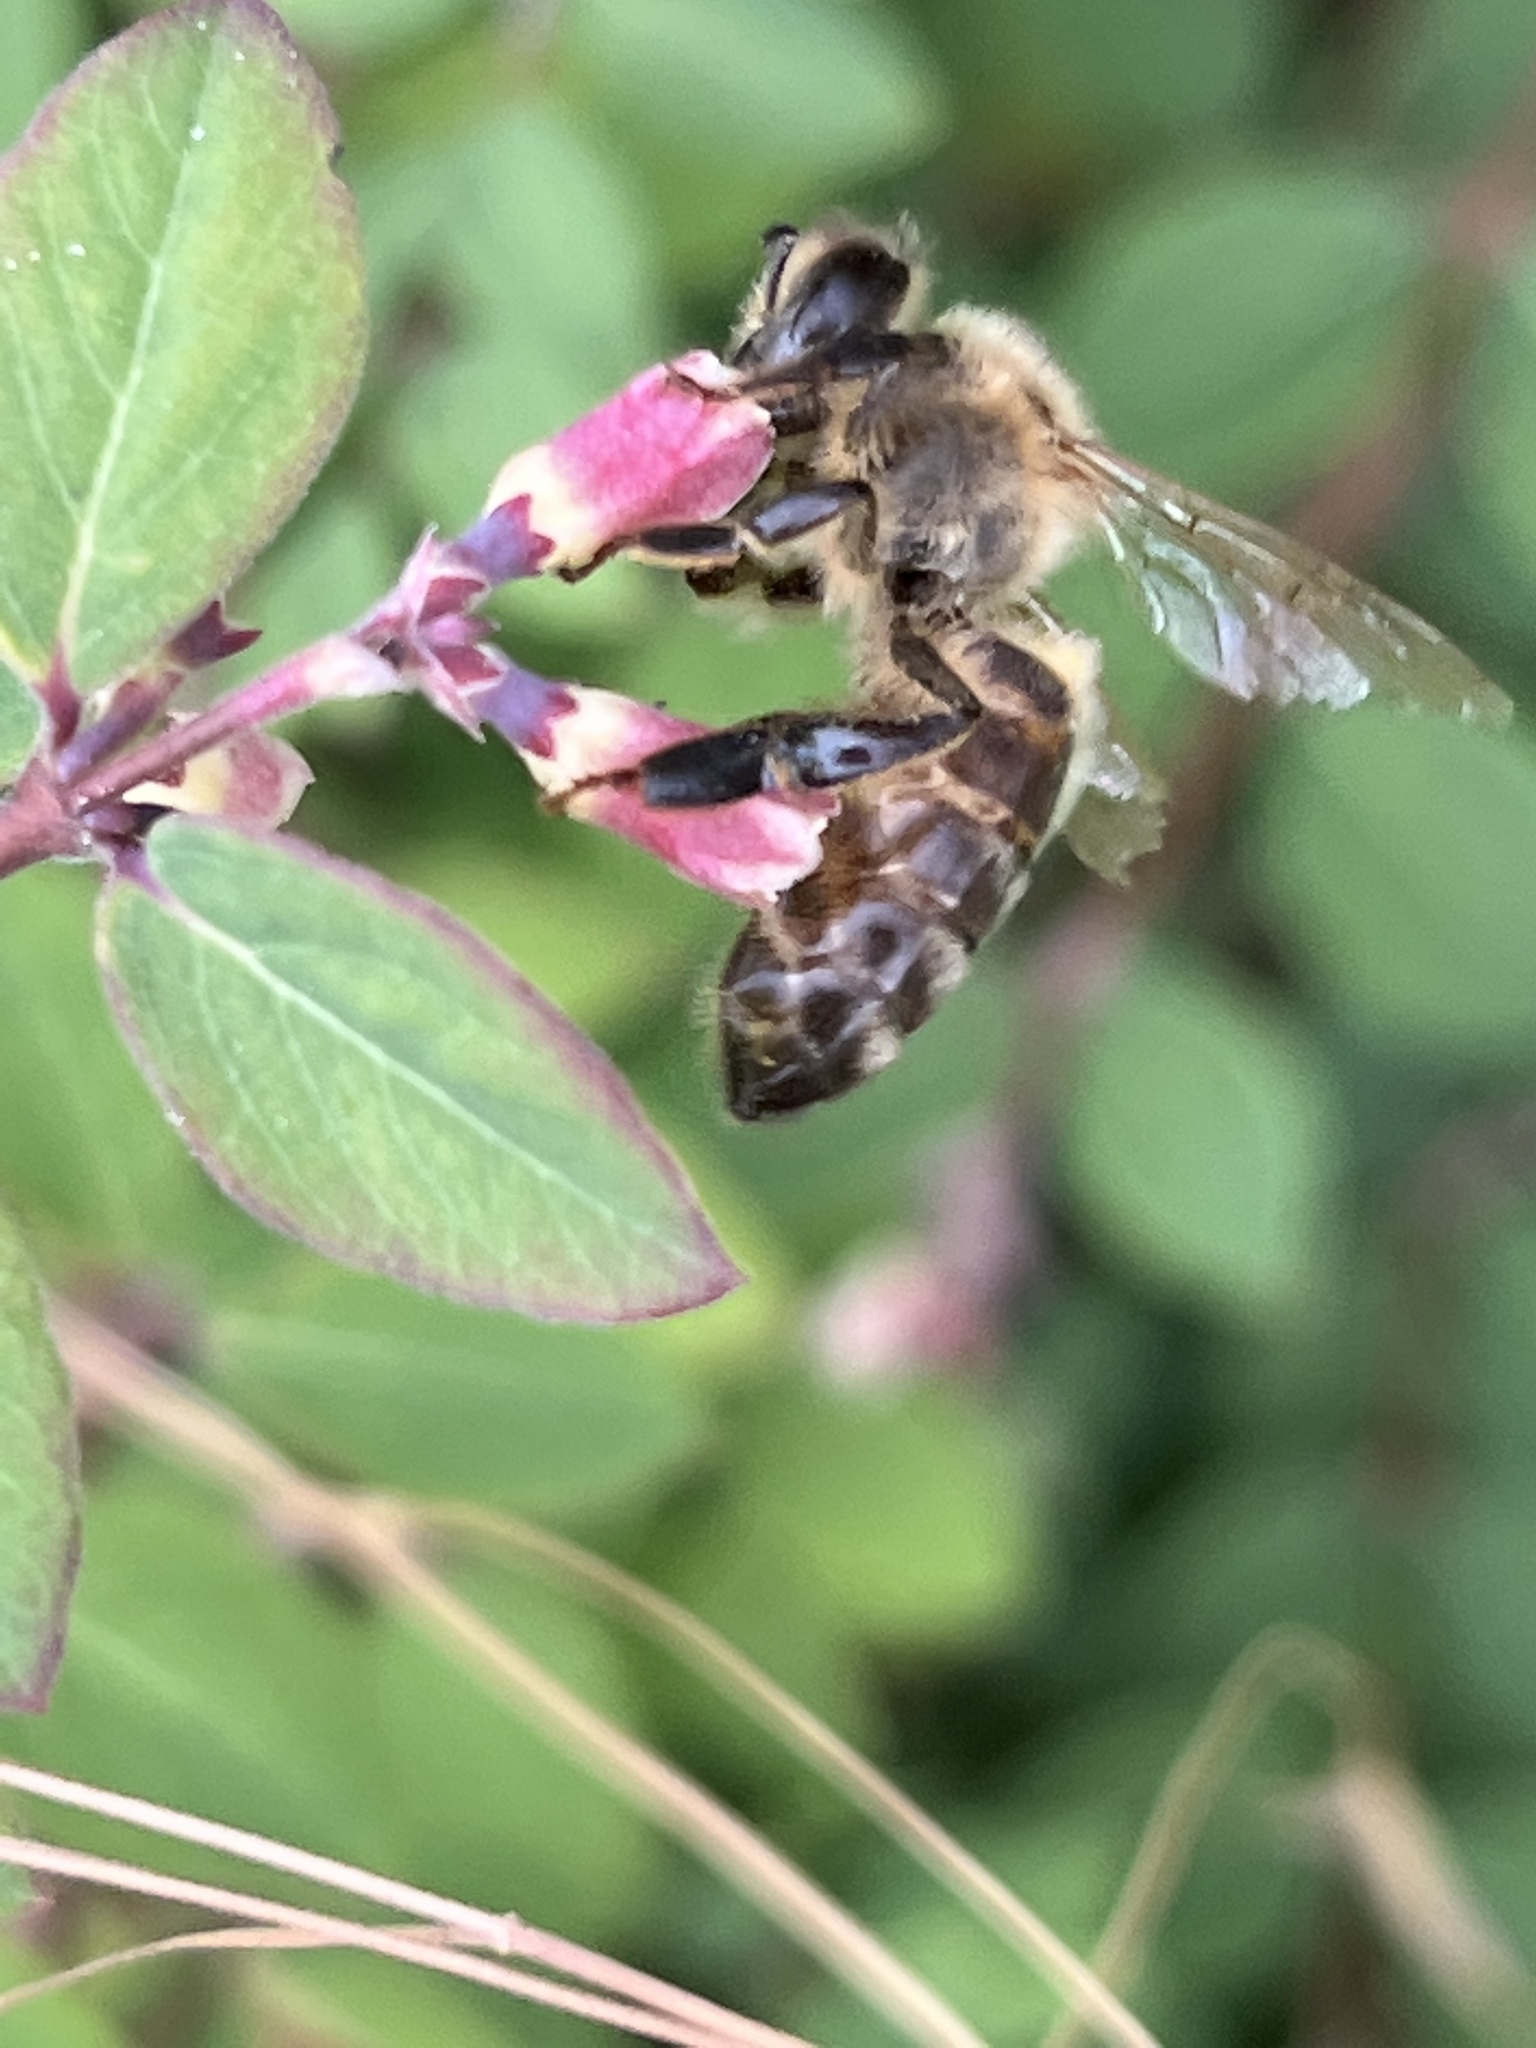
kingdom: Animalia
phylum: Arthropoda
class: Insecta
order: Hymenoptera
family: Apidae
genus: Apis
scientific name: Apis mellifera
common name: Honey bee
